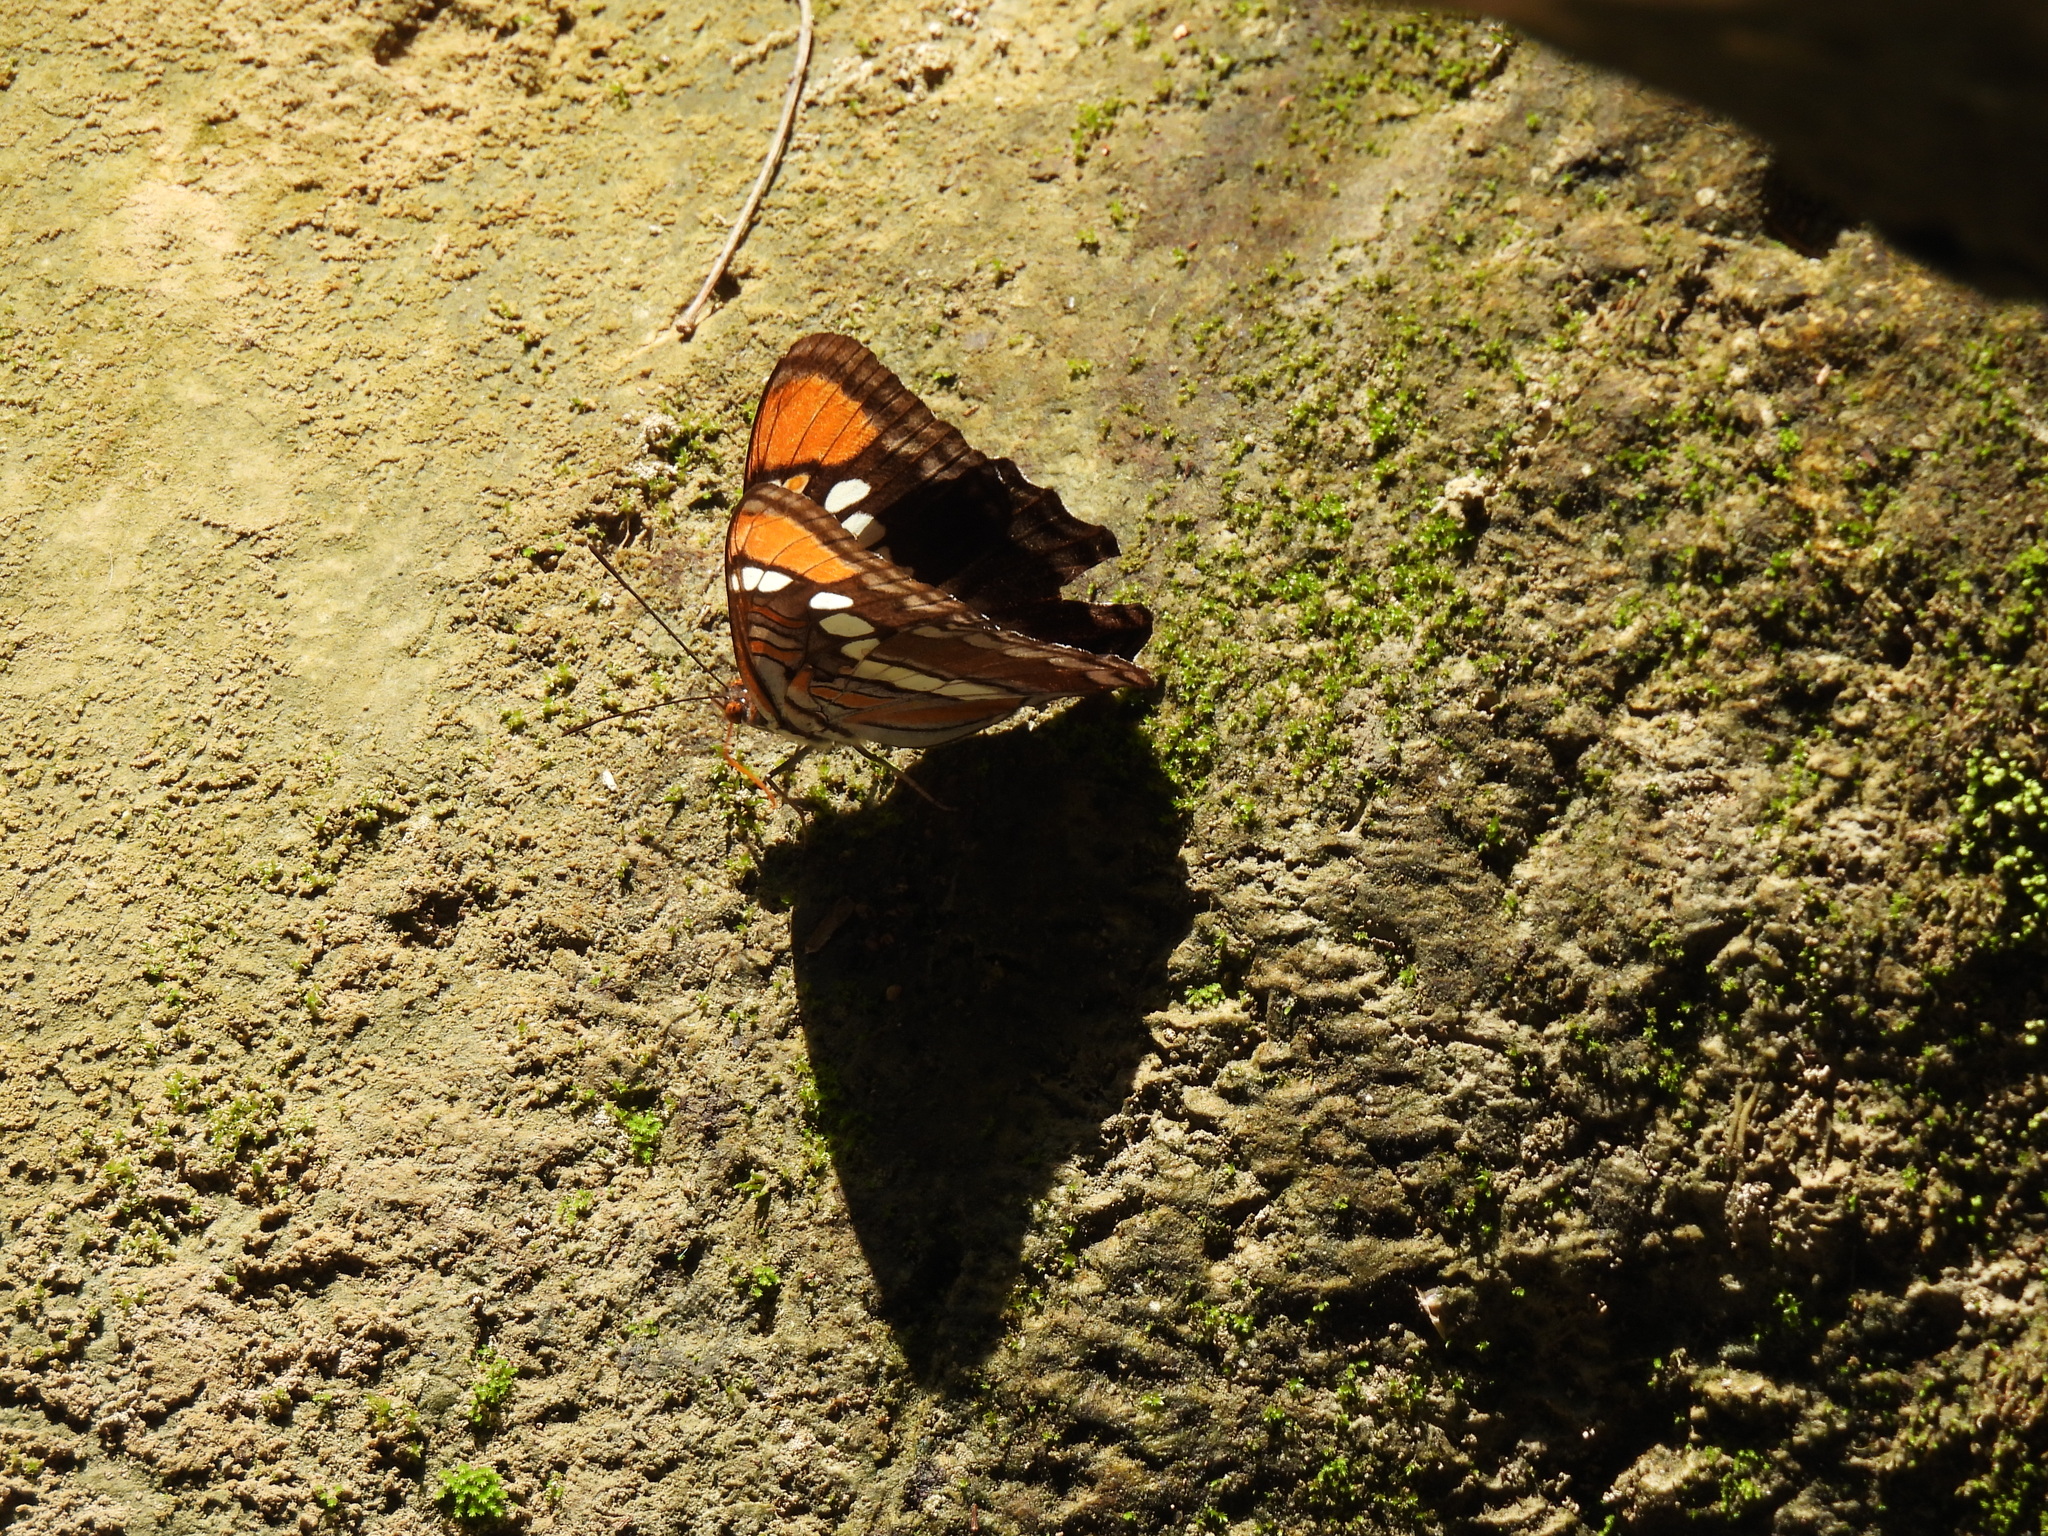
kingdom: Animalia
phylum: Arthropoda
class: Insecta
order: Lepidoptera
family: Nymphalidae
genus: Limenitis
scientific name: Limenitis bredowii
